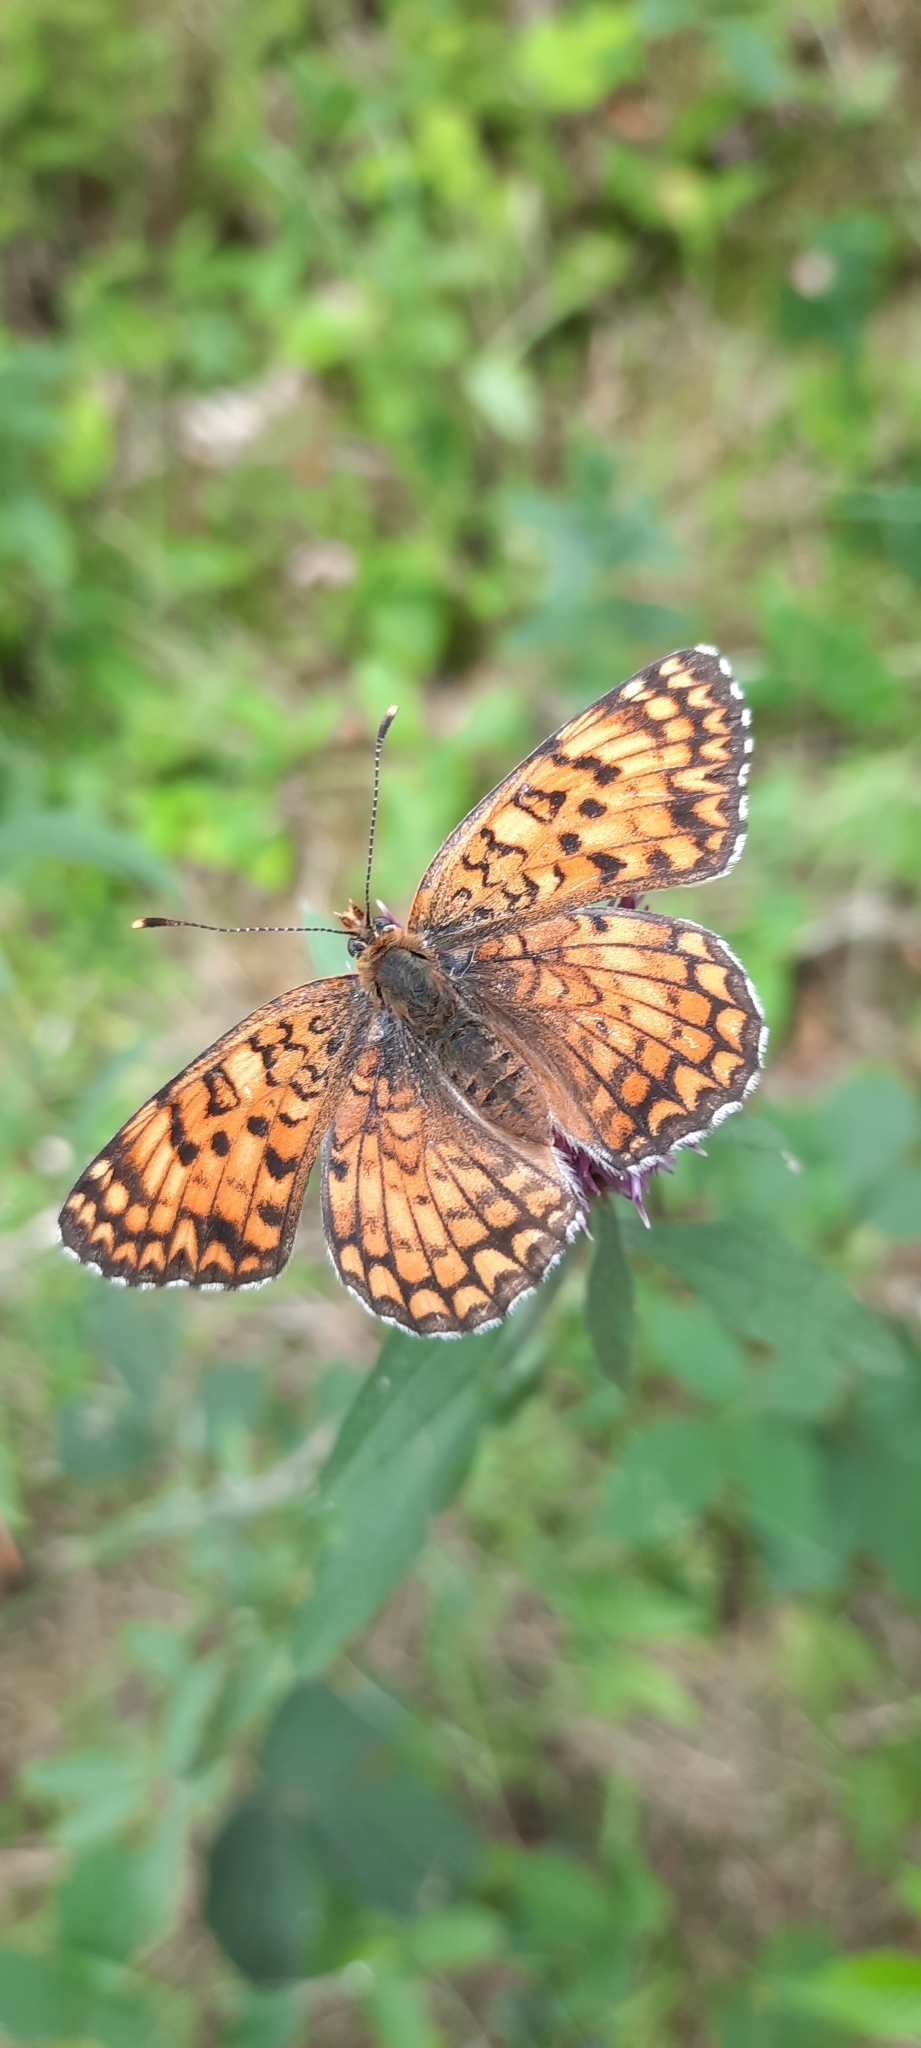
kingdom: Animalia
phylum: Arthropoda
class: Insecta
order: Lepidoptera
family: Nymphalidae
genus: Melitaea
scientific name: Melitaea phoebe
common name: Knapweed fritillary
